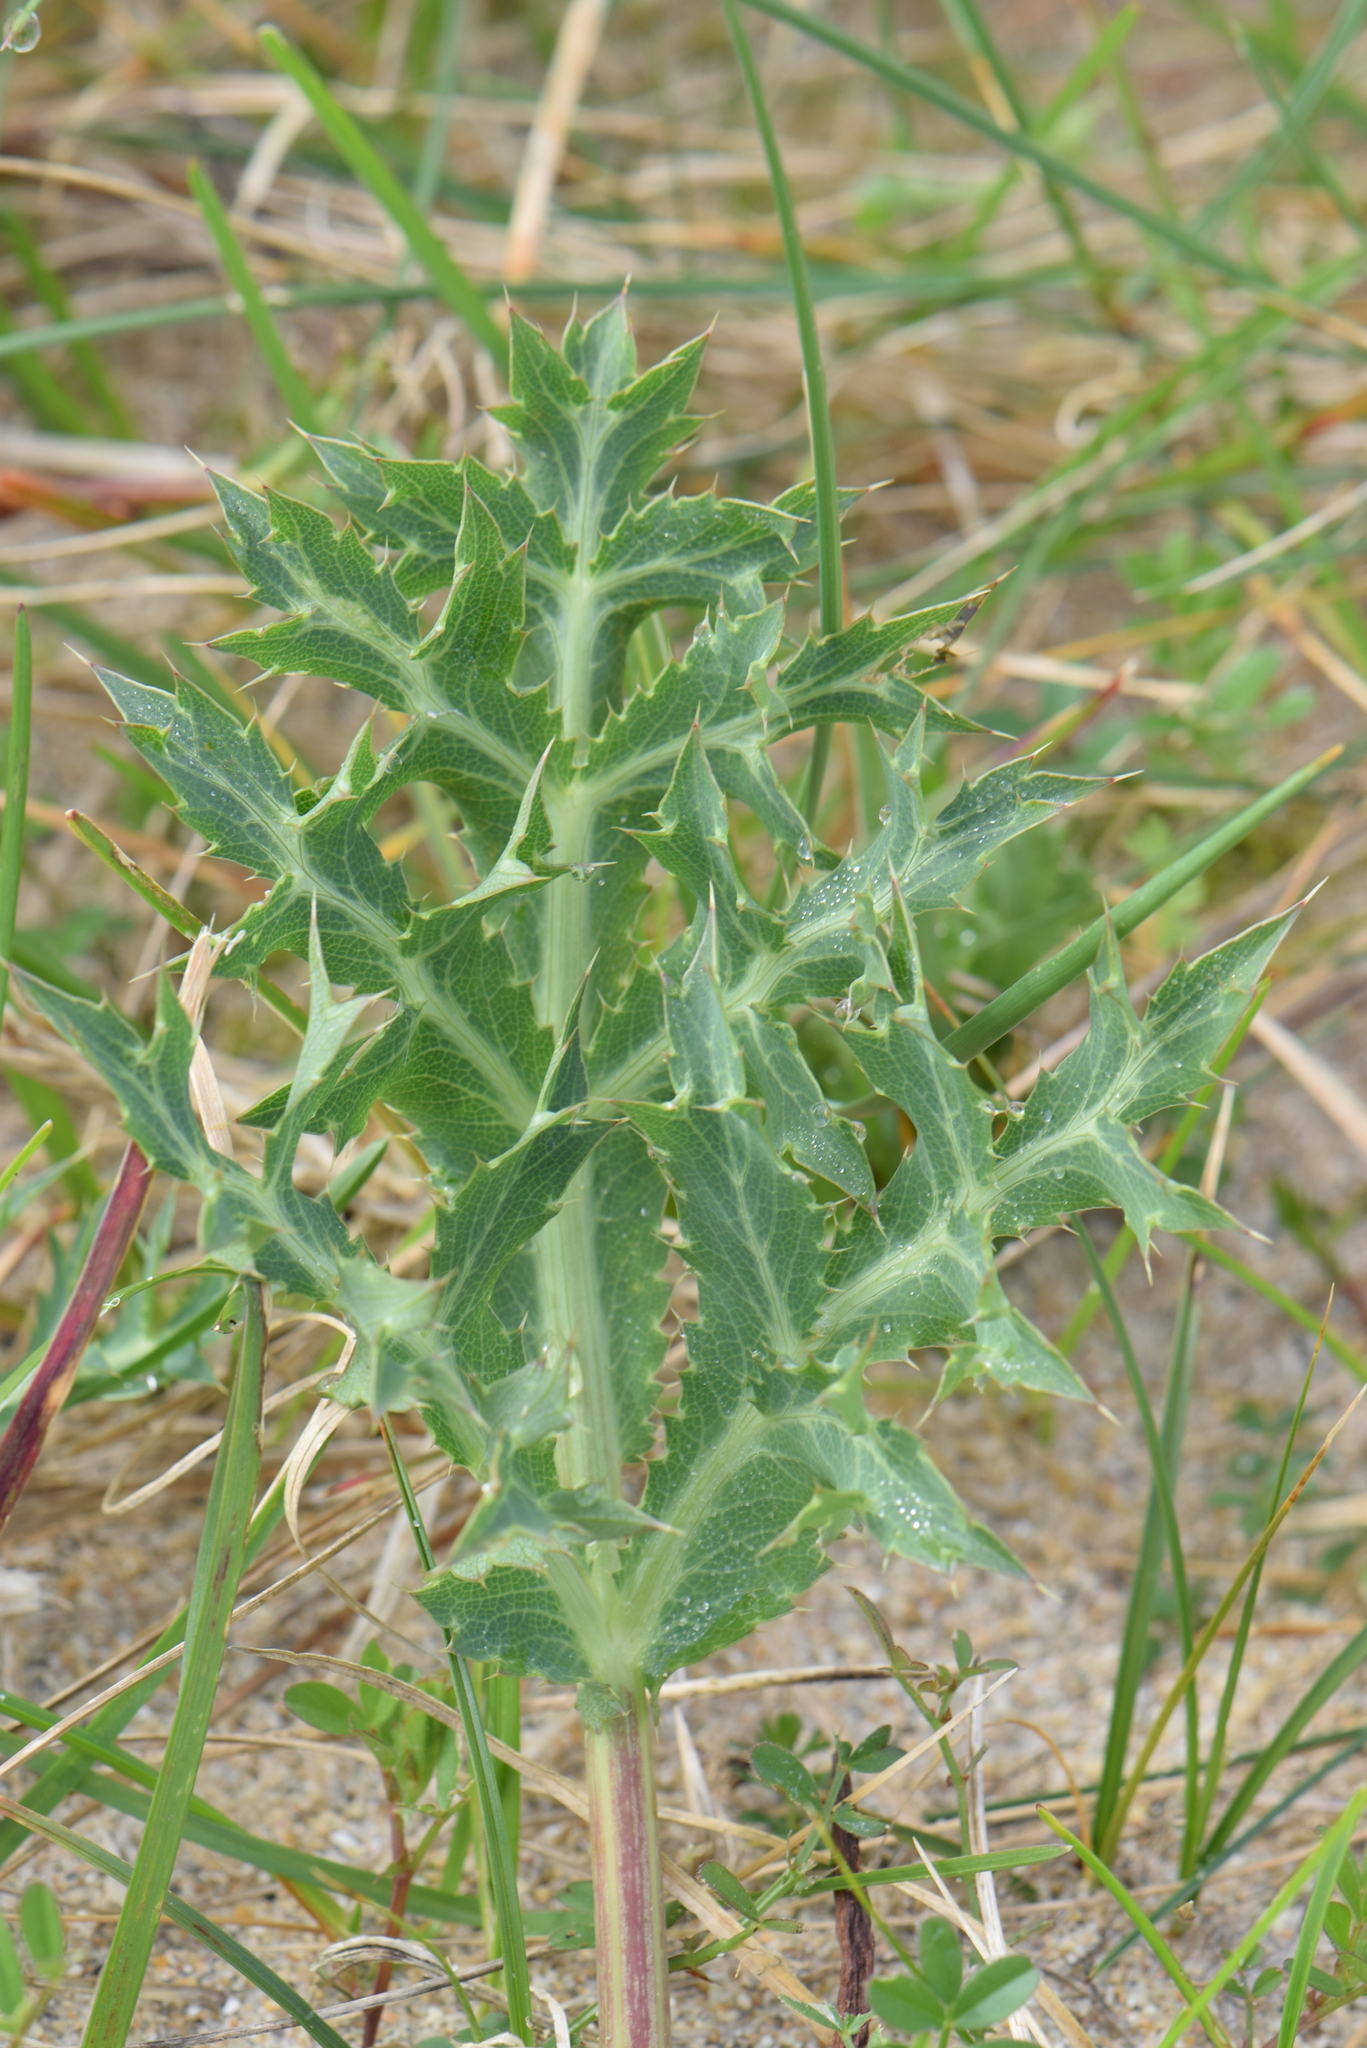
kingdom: Plantae
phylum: Tracheophyta
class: Magnoliopsida
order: Apiales
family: Apiaceae
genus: Eryngium
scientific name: Eryngium campestre
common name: Field eryngo
